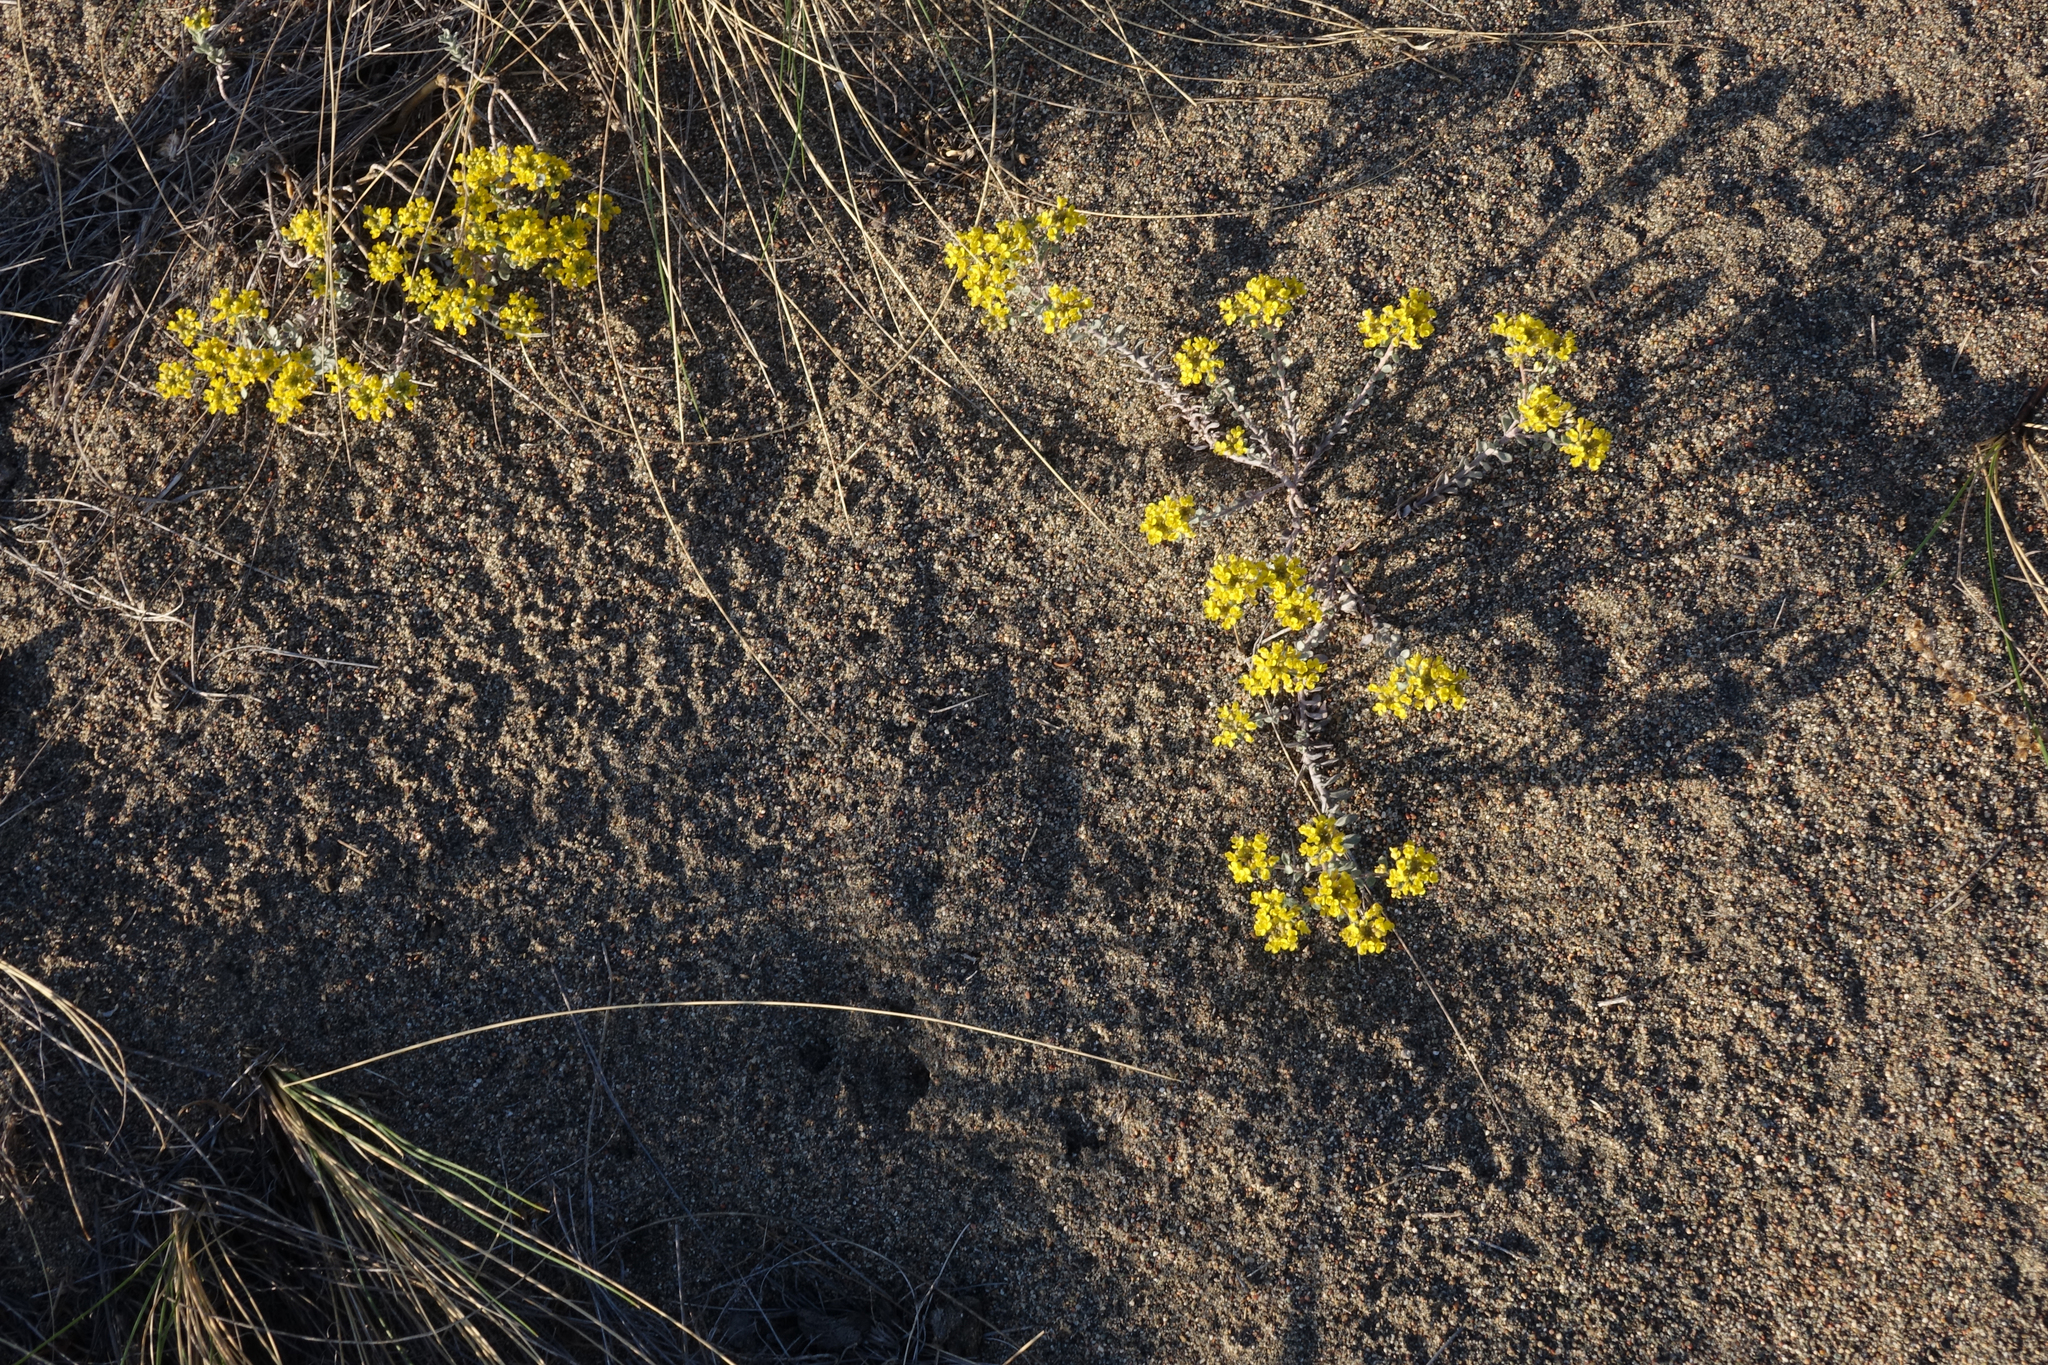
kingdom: Plantae
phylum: Tracheophyta
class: Magnoliopsida
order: Brassicales
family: Brassicaceae
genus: Odontarrhena
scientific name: Odontarrhena obovata
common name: American alyssum
